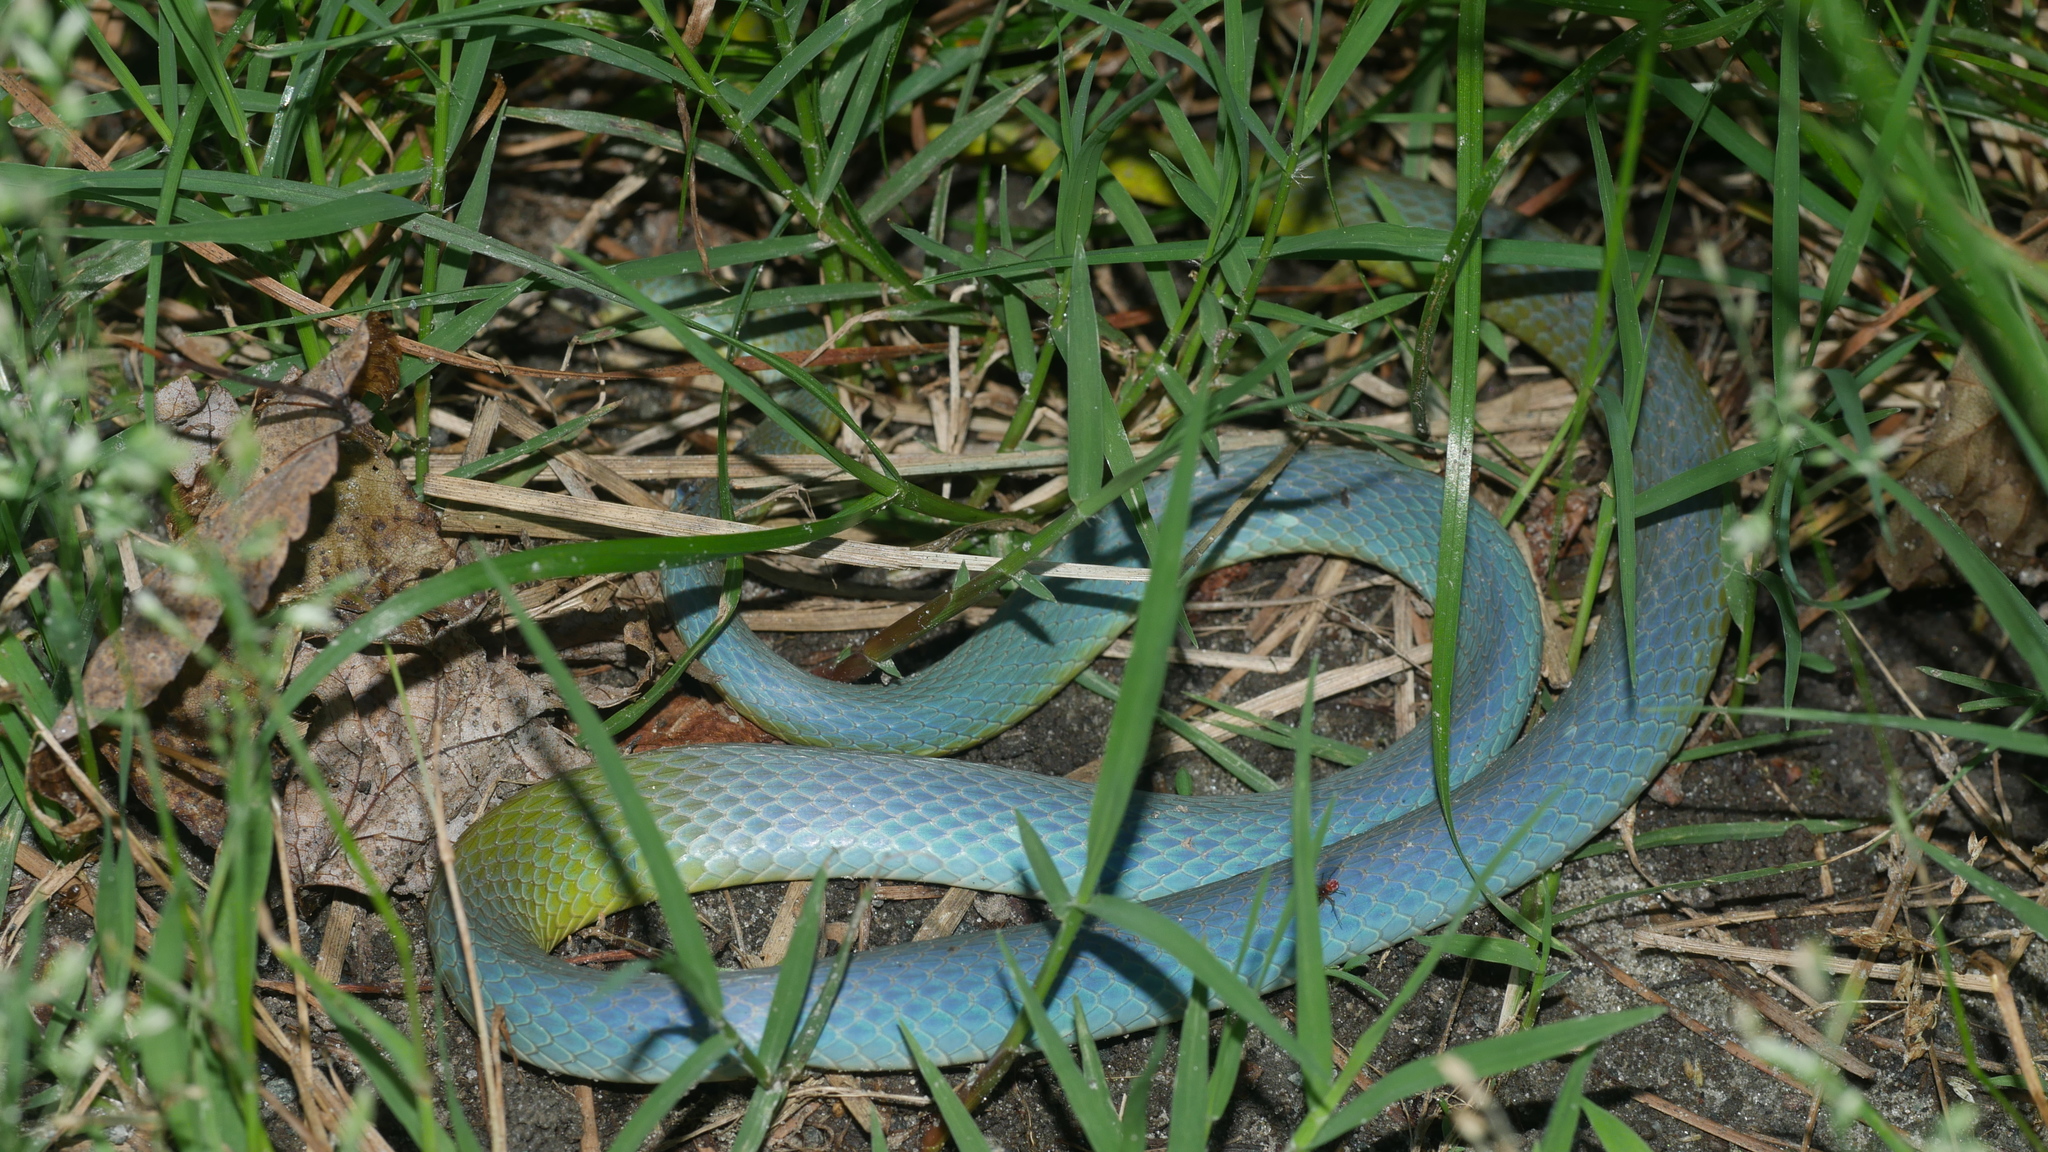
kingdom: Animalia
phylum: Chordata
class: Squamata
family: Colubridae
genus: Opheodrys
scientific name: Opheodrys aestivus
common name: Rough greensnake
